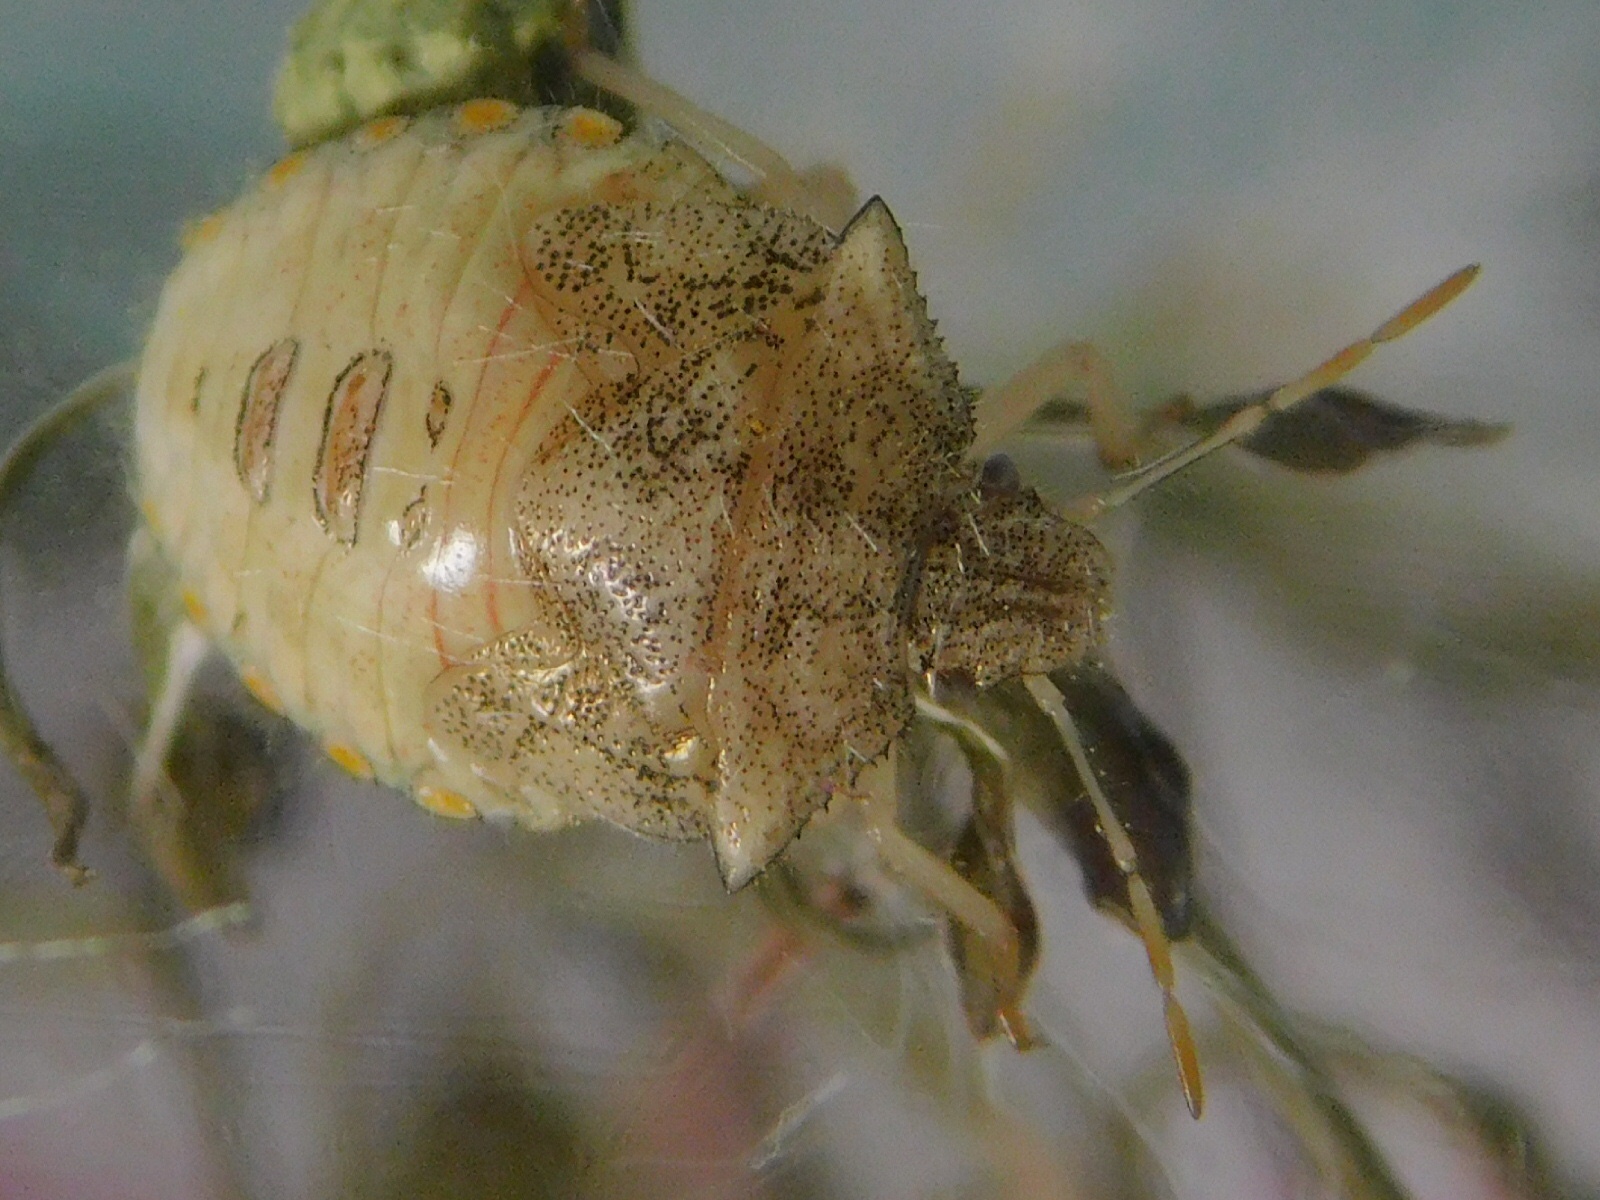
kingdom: Animalia
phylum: Arthropoda
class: Insecta
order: Hemiptera
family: Pentatomidae
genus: Thyanta
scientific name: Thyanta perditor
